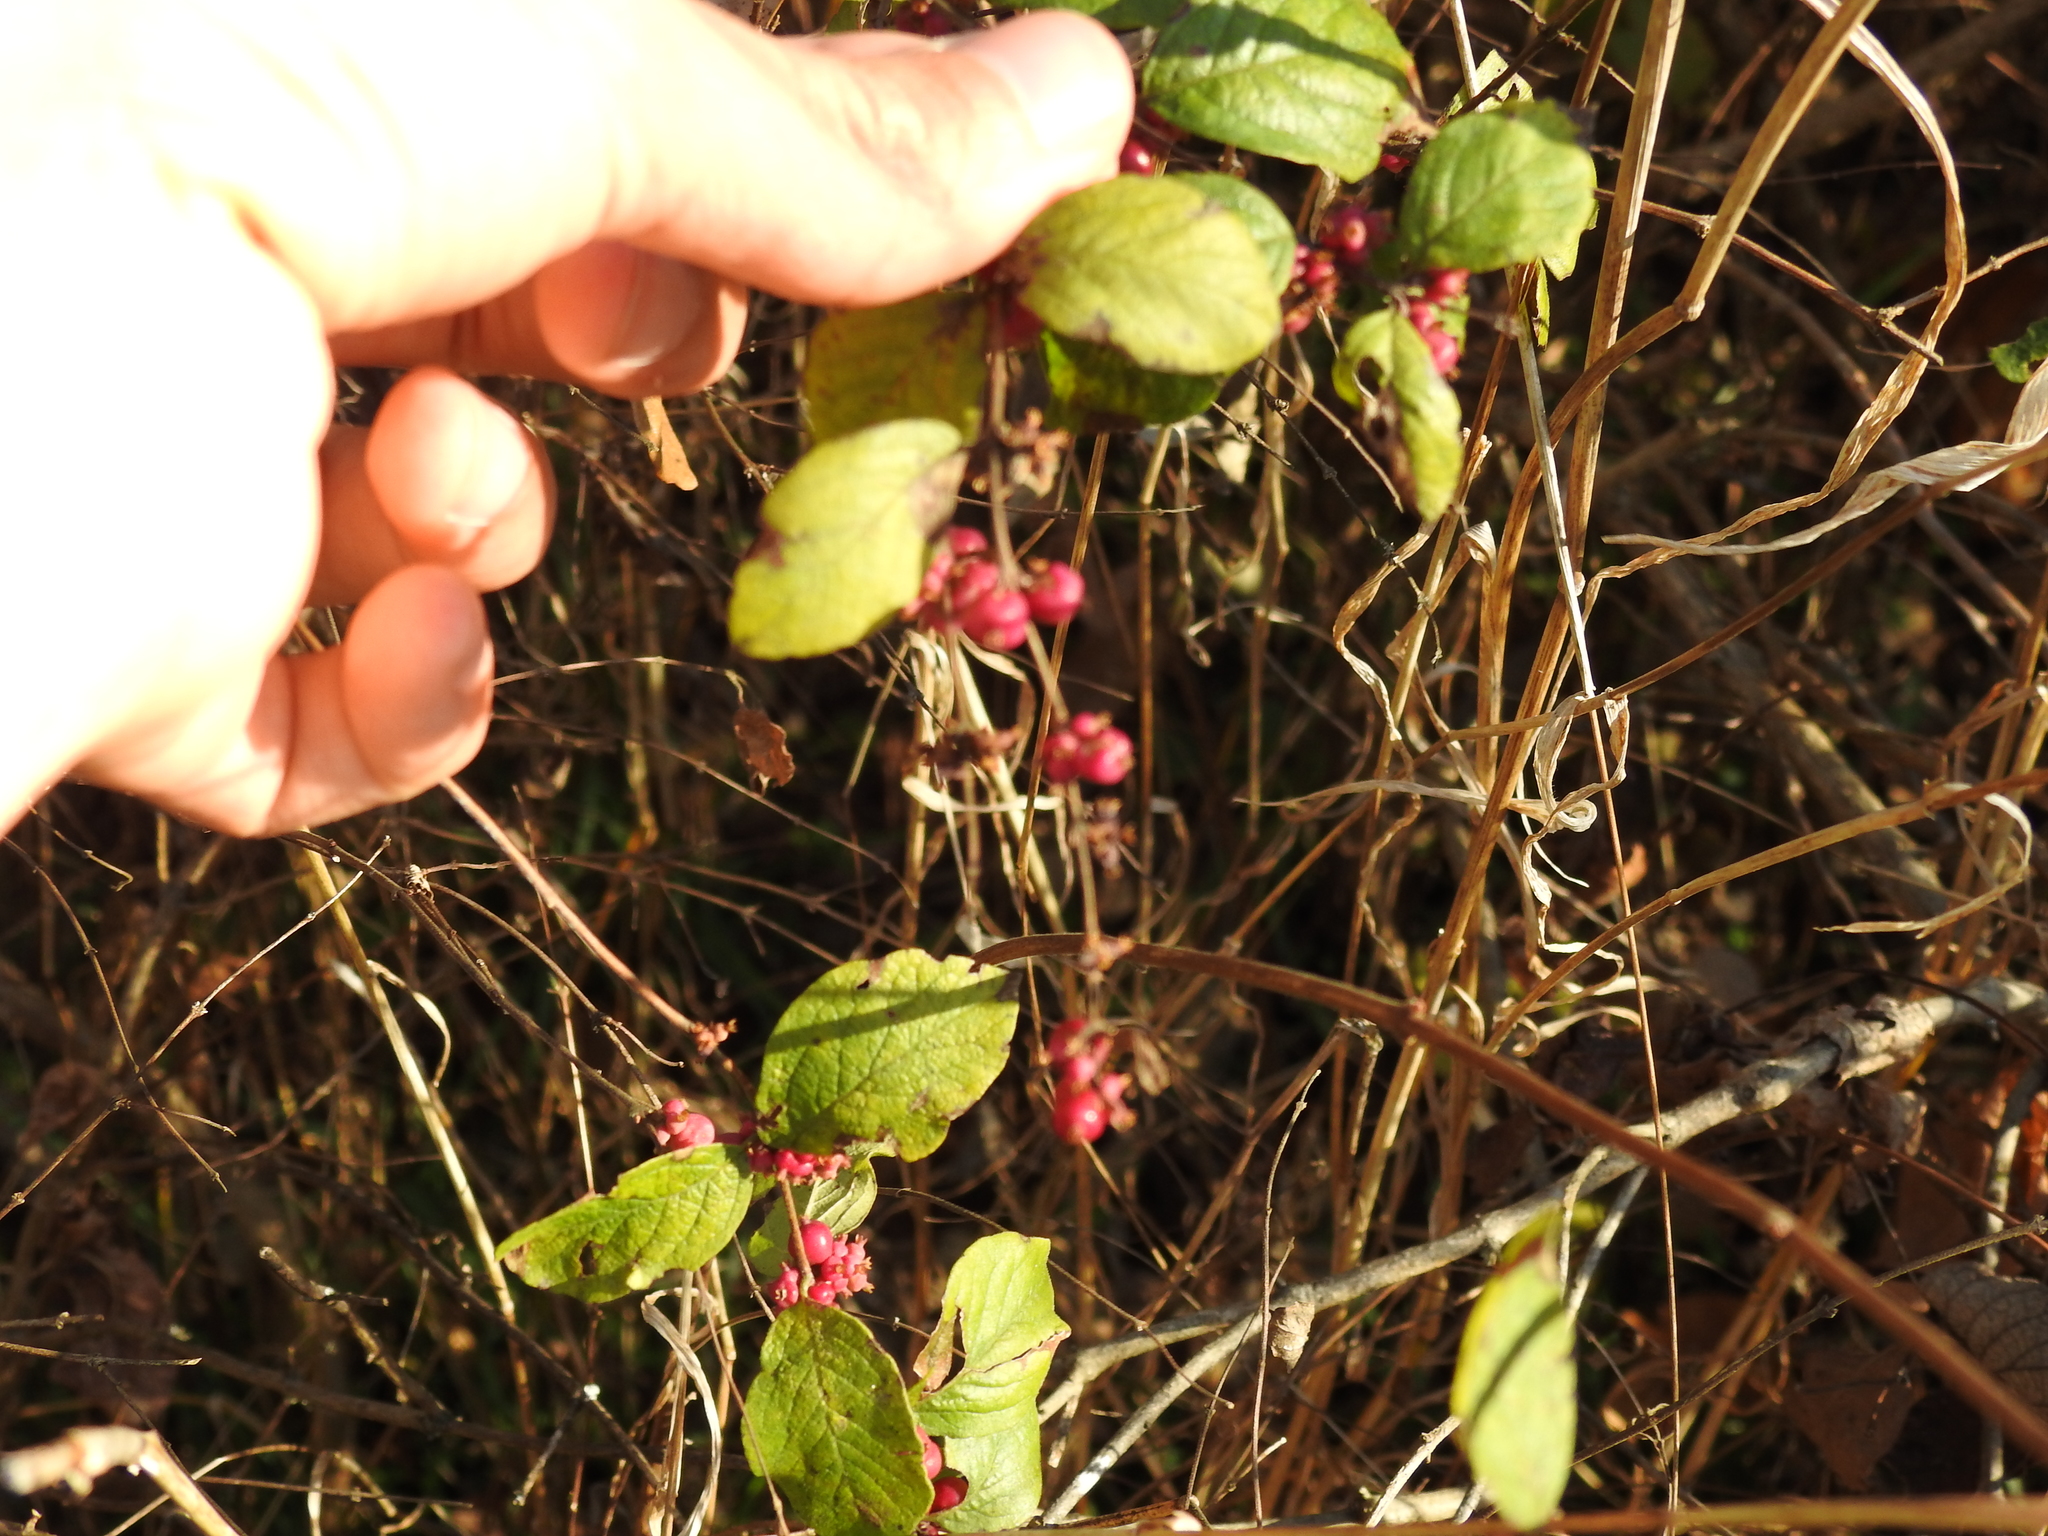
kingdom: Plantae
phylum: Tracheophyta
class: Magnoliopsida
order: Dipsacales
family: Caprifoliaceae
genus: Symphoricarpos
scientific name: Symphoricarpos orbiculatus
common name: Coralberry
